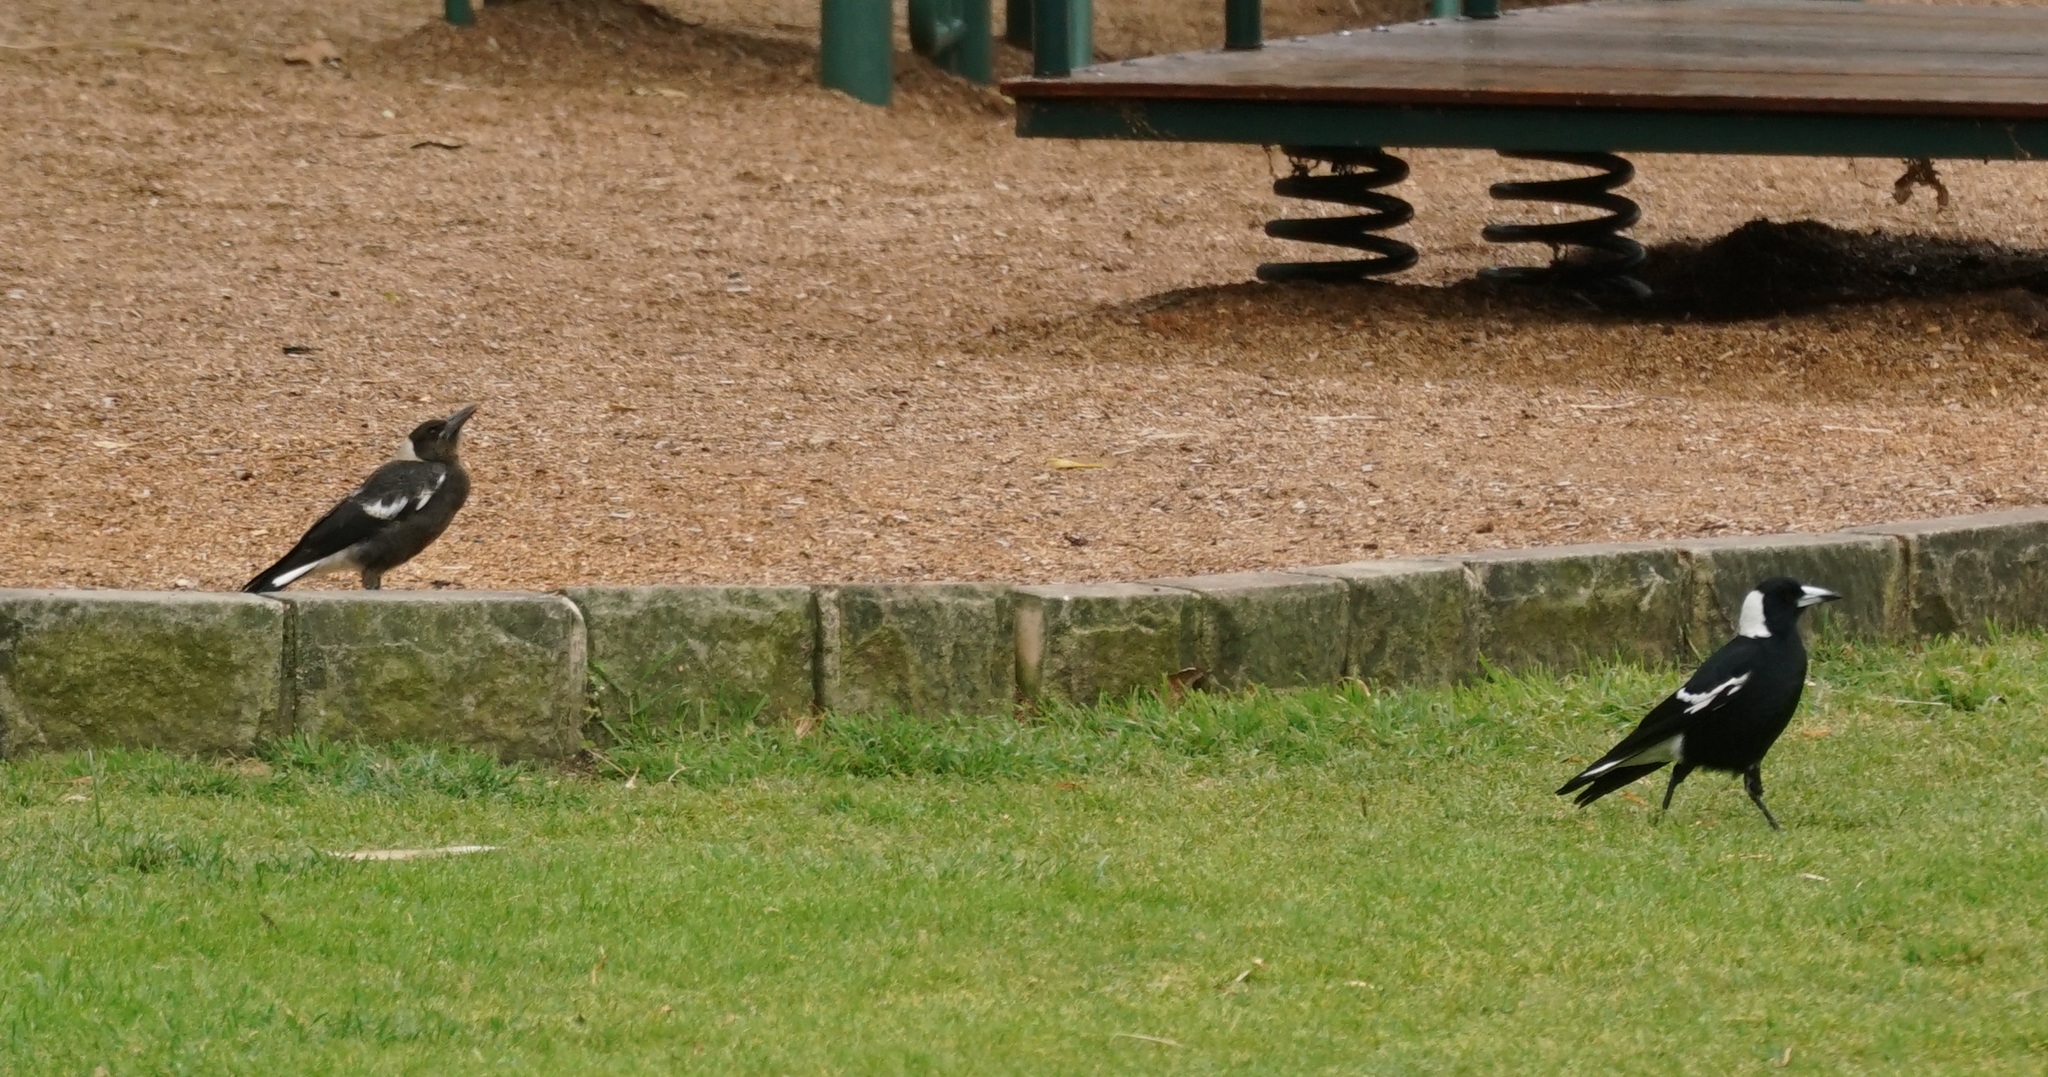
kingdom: Animalia
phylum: Chordata
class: Aves
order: Passeriformes
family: Cracticidae
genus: Gymnorhina
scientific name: Gymnorhina tibicen
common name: Australian magpie
